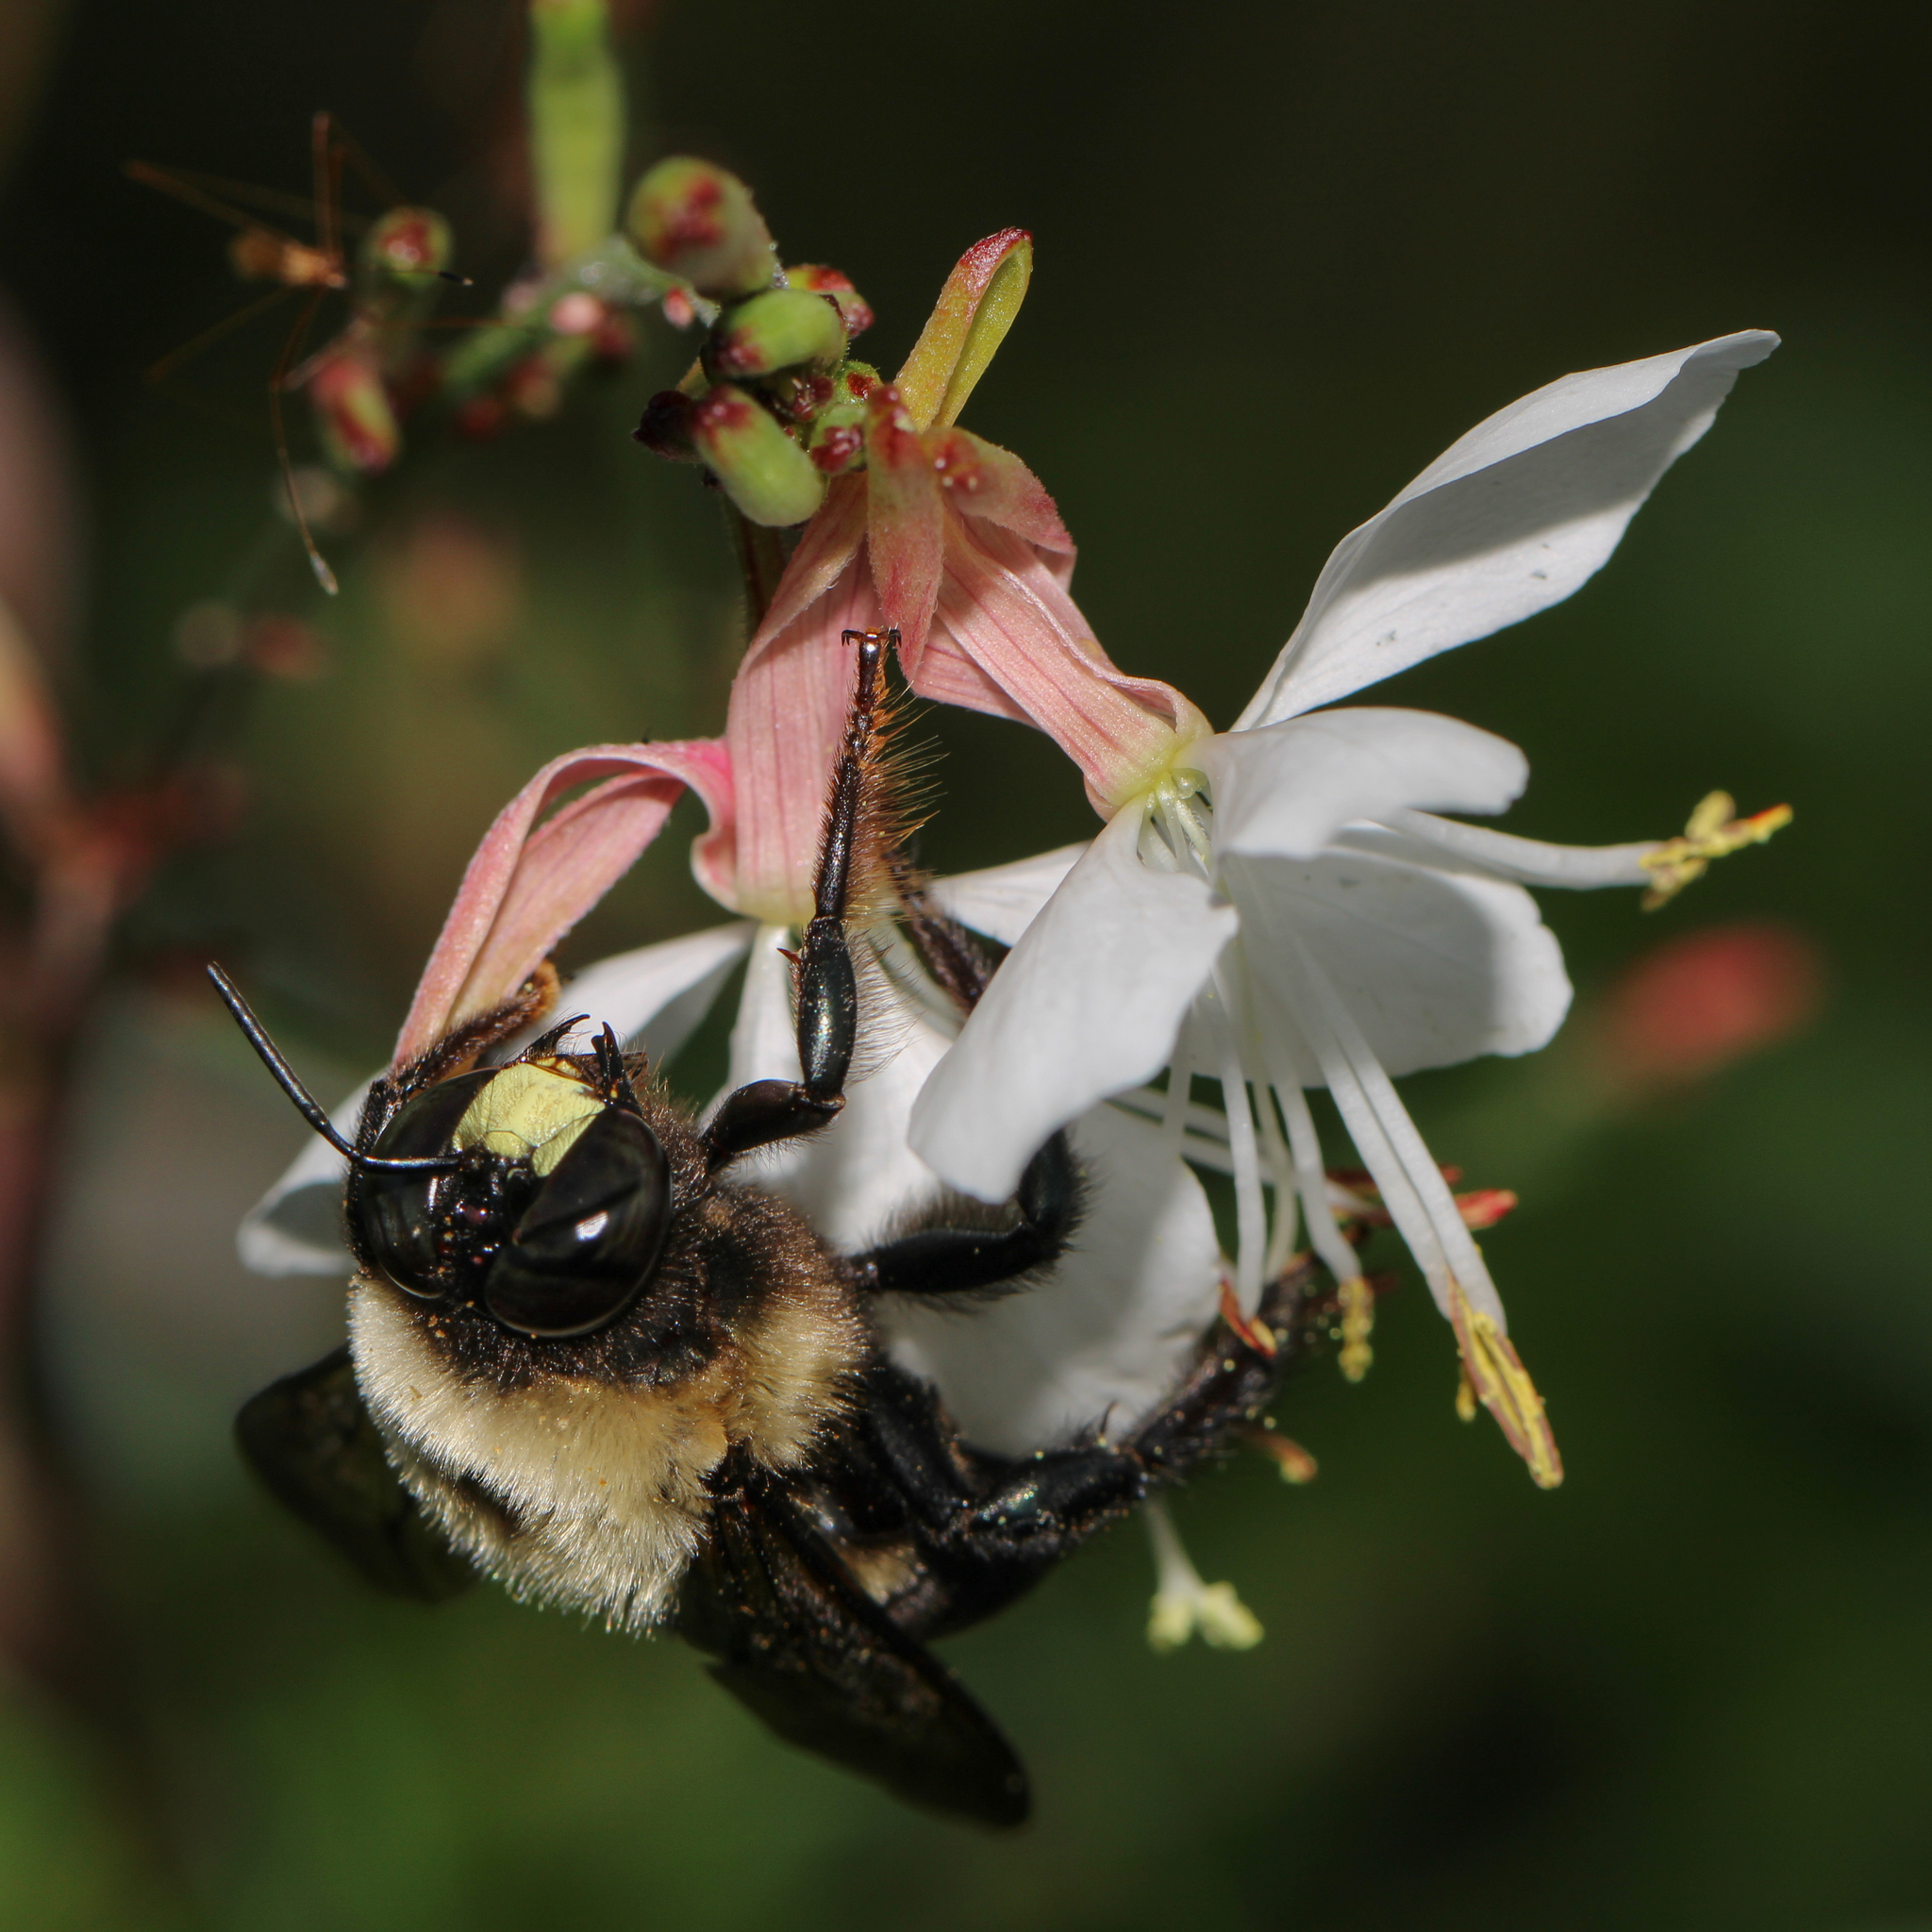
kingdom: Animalia
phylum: Arthropoda
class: Insecta
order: Hymenoptera
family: Apidae
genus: Xylocopa
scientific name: Xylocopa virginica
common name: Carpenter bee
